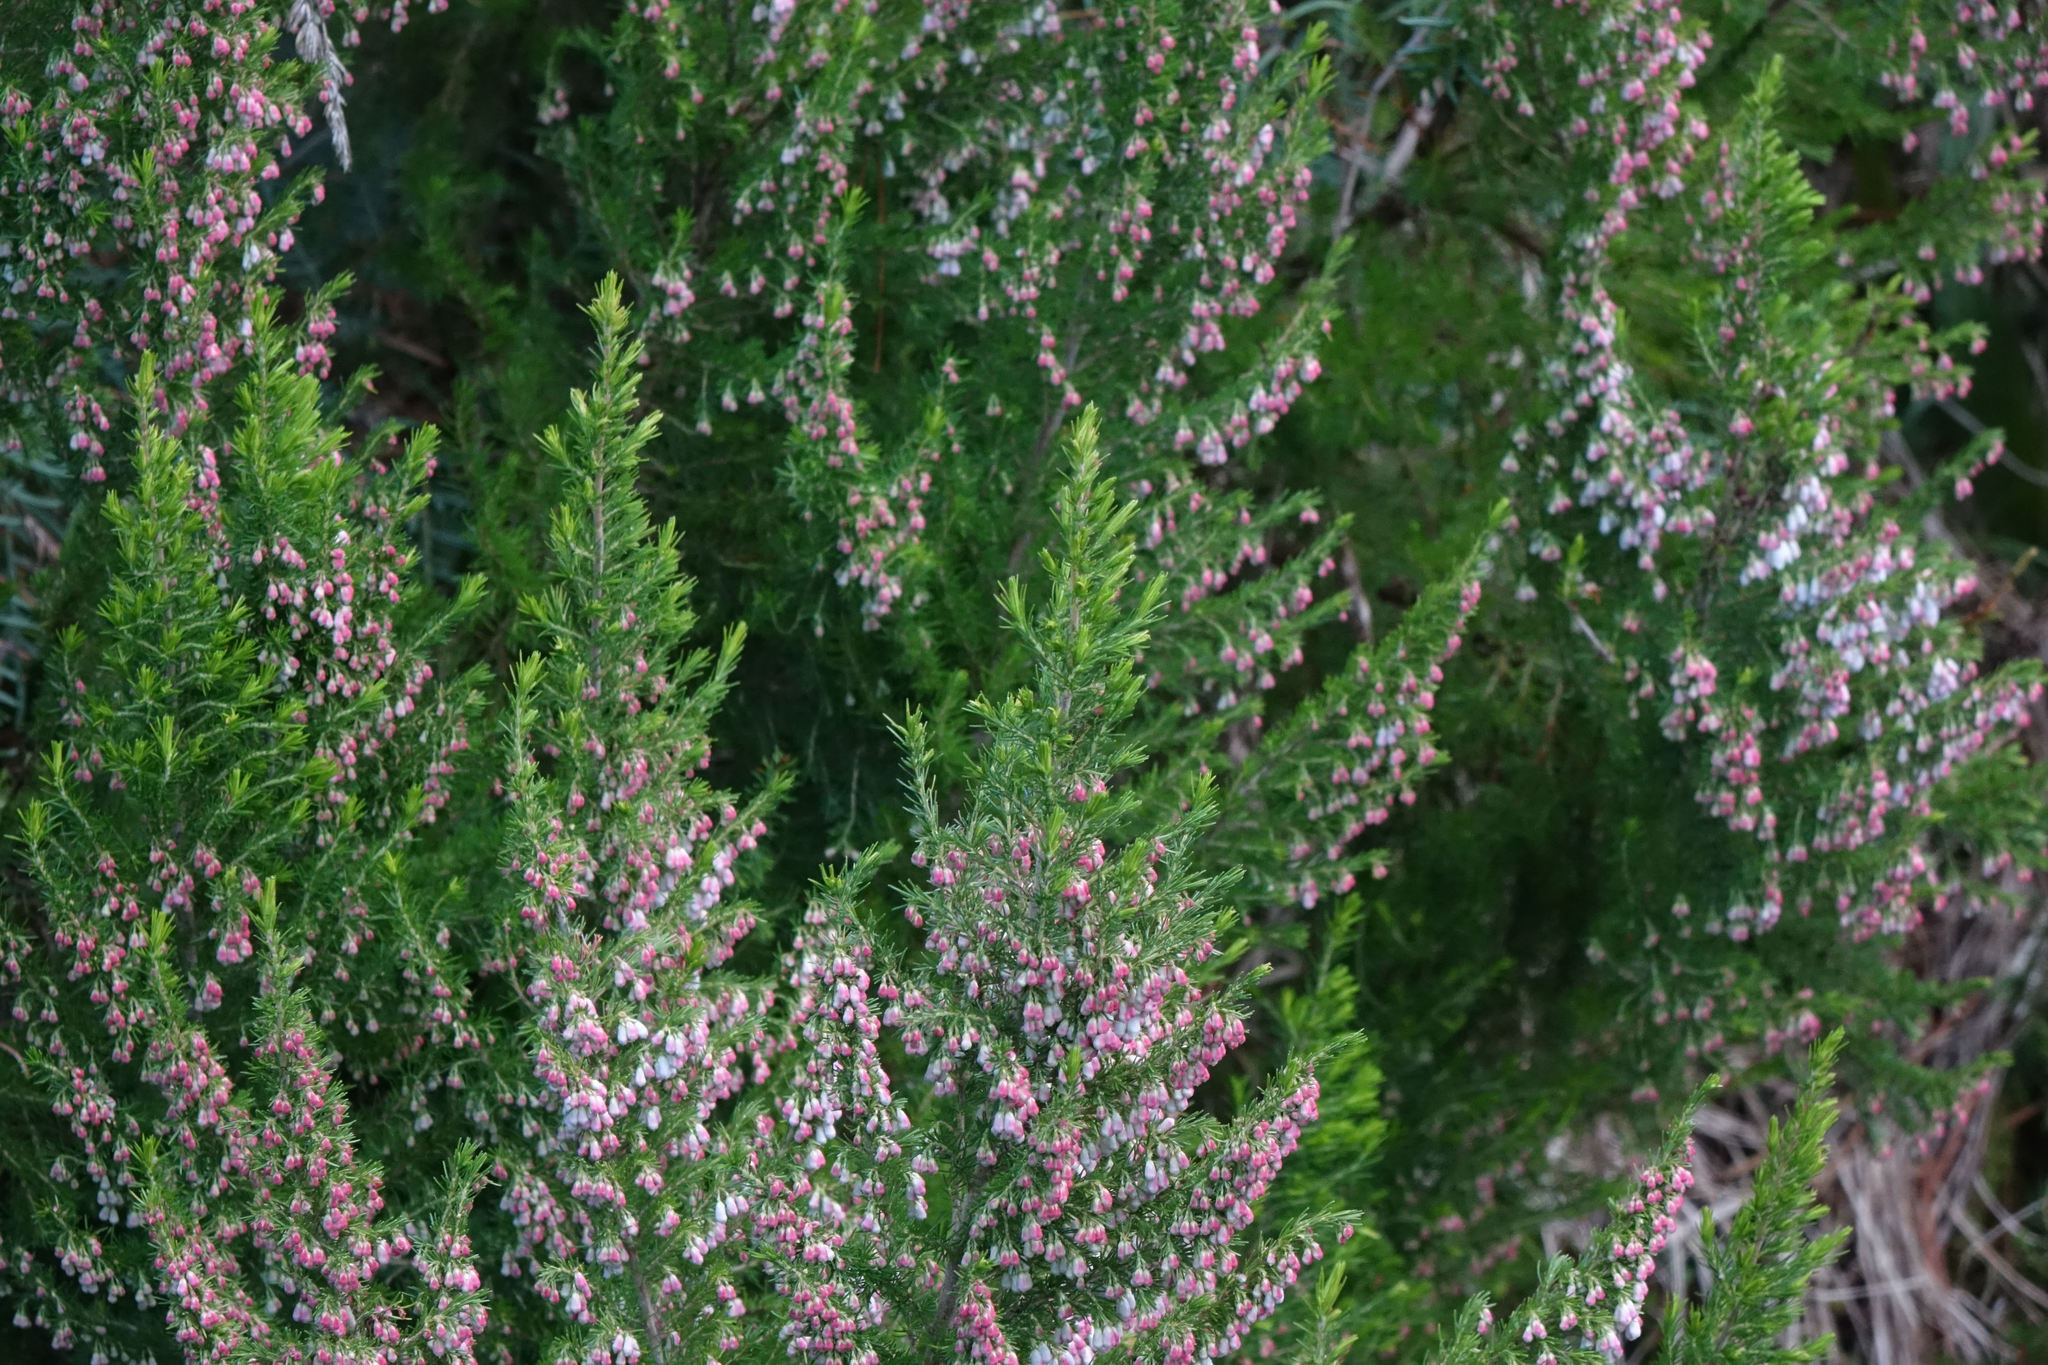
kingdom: Plantae
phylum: Tracheophyta
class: Magnoliopsida
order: Ericales
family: Ericaceae
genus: Erica
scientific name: Erica lusitanica
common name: Spanish heath
